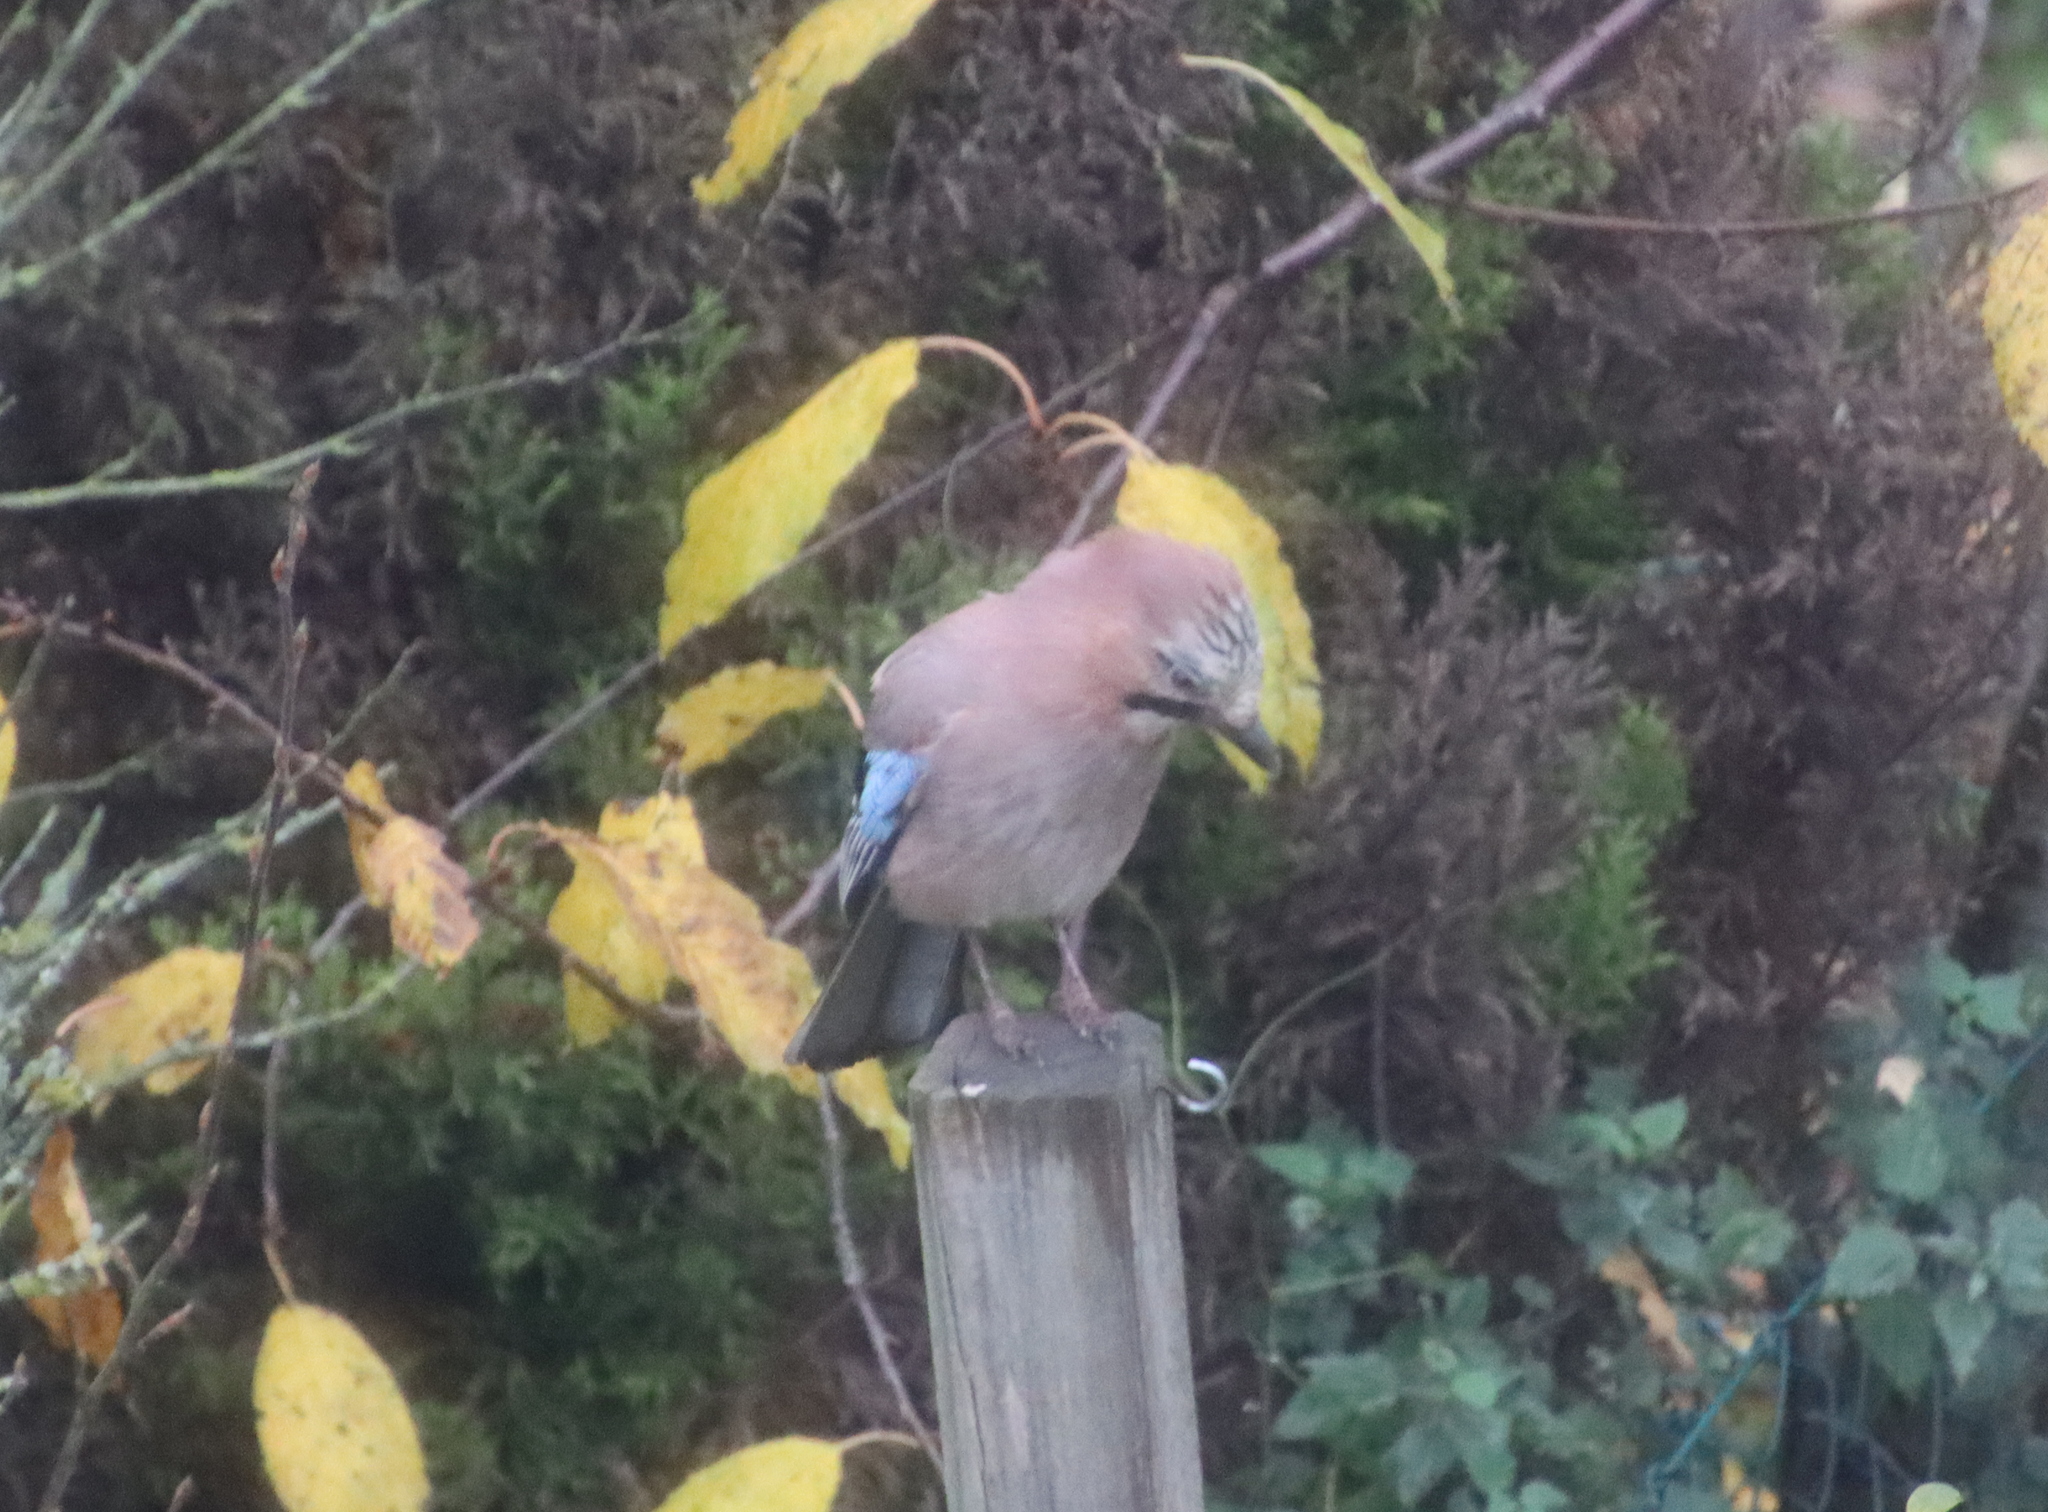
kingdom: Animalia
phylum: Chordata
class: Aves
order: Passeriformes
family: Corvidae
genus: Garrulus
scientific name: Garrulus glandarius
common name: Eurasian jay
